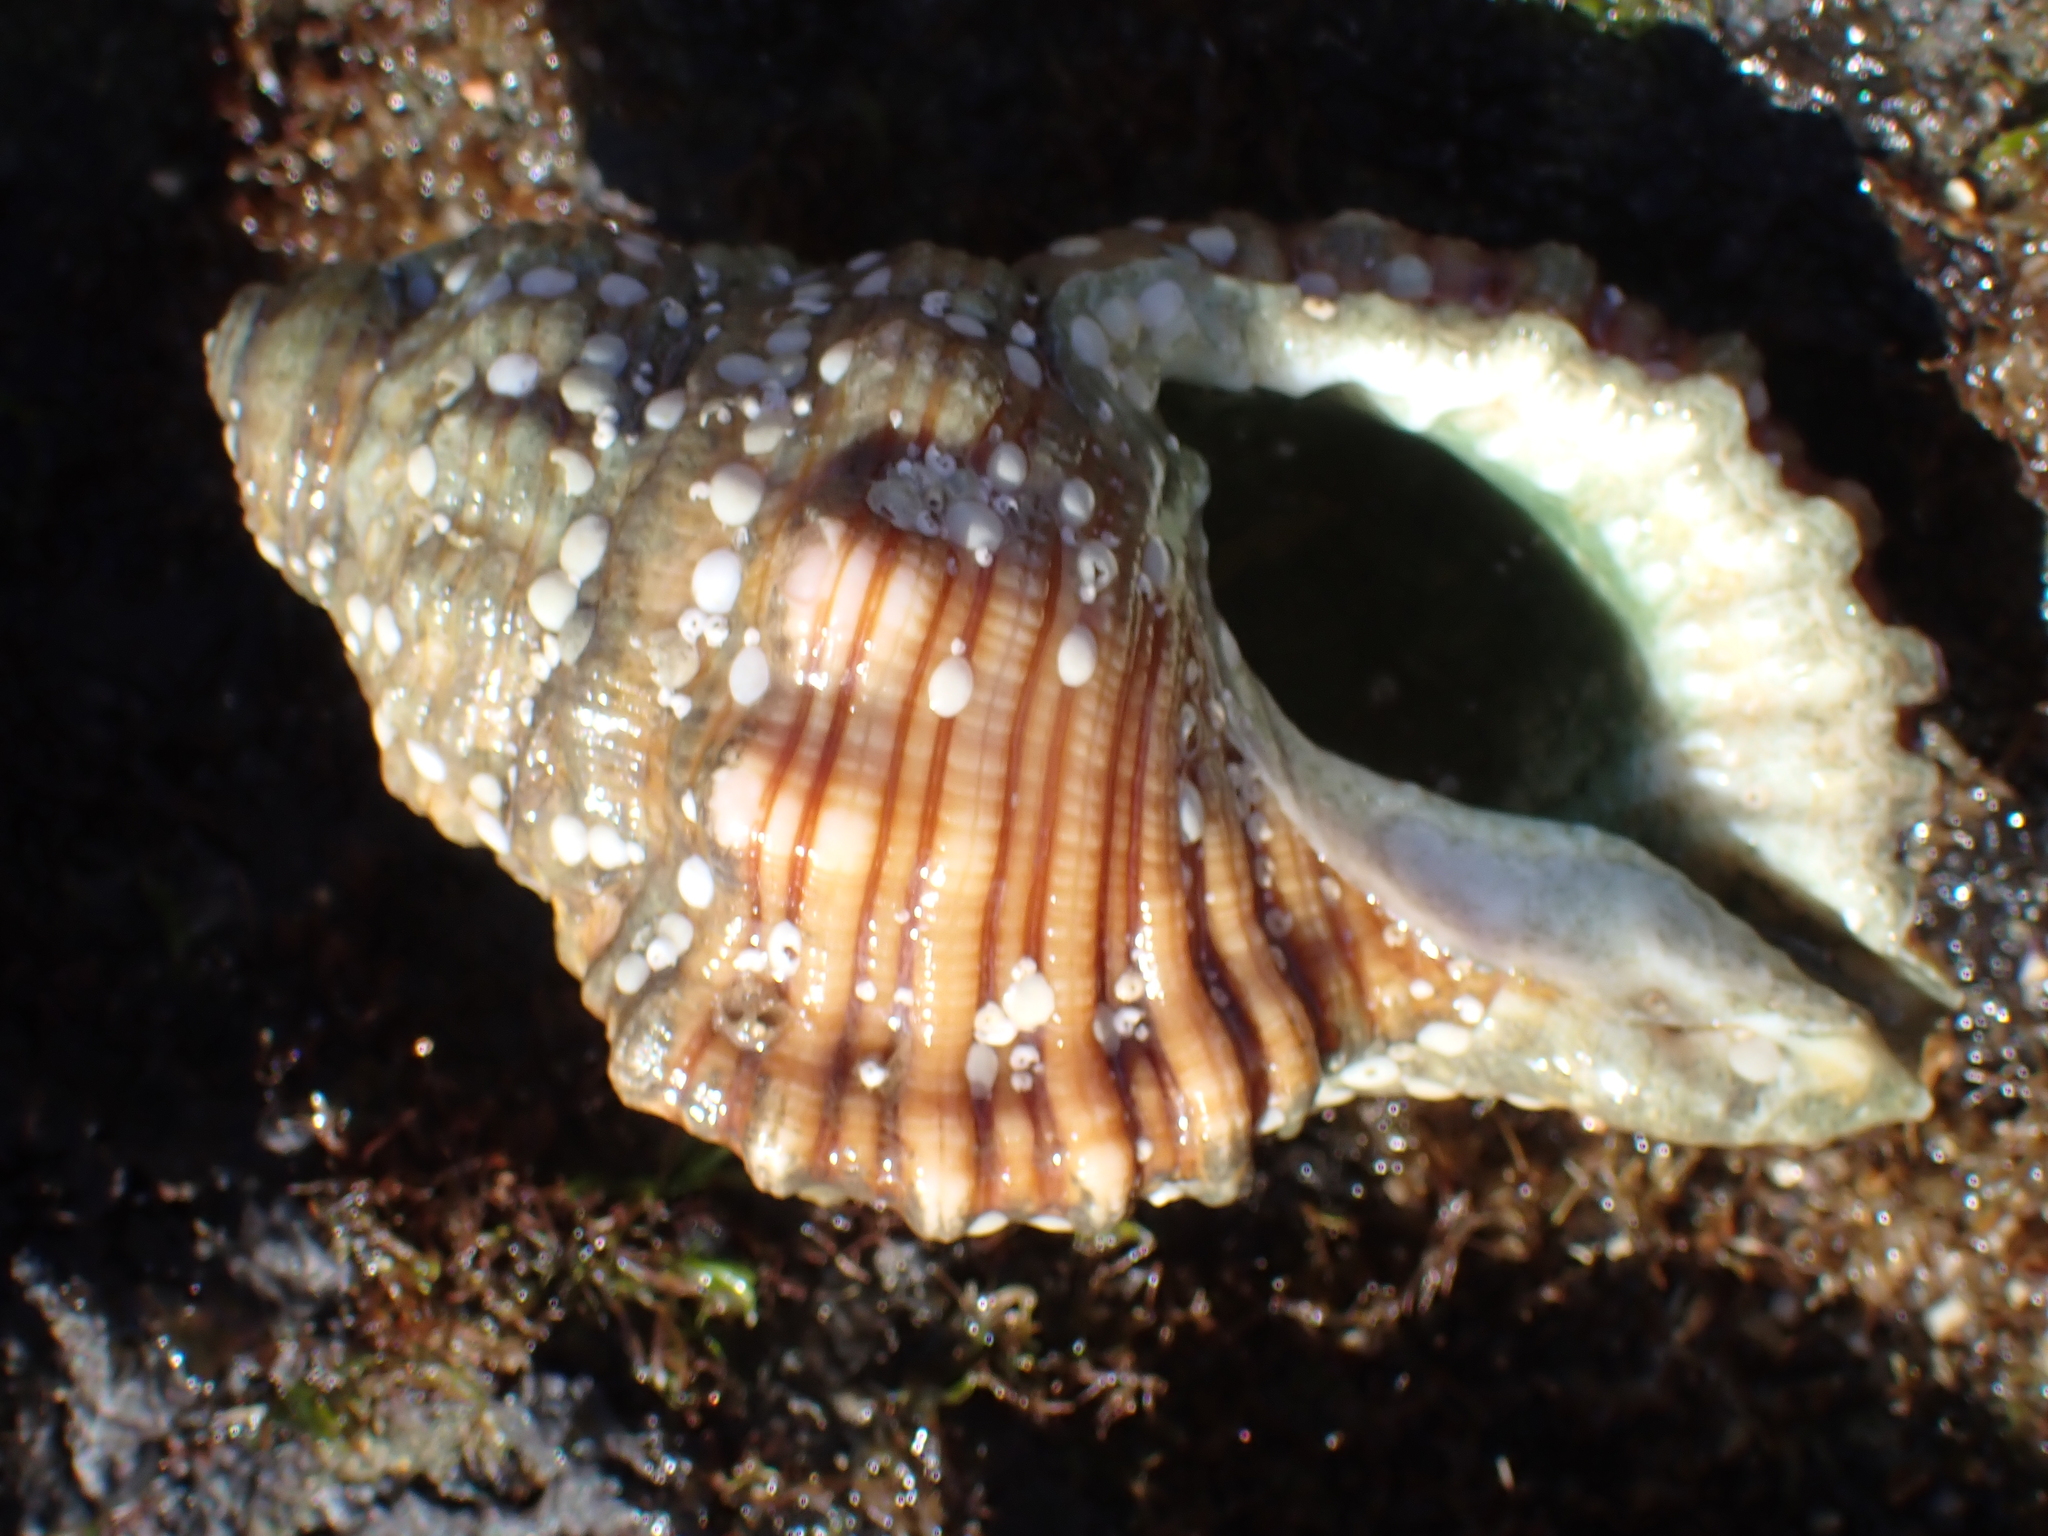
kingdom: Animalia
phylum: Mollusca
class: Gastropoda
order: Littorinimorpha
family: Cymatiidae
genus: Cabestana
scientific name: Cabestana spengleri
